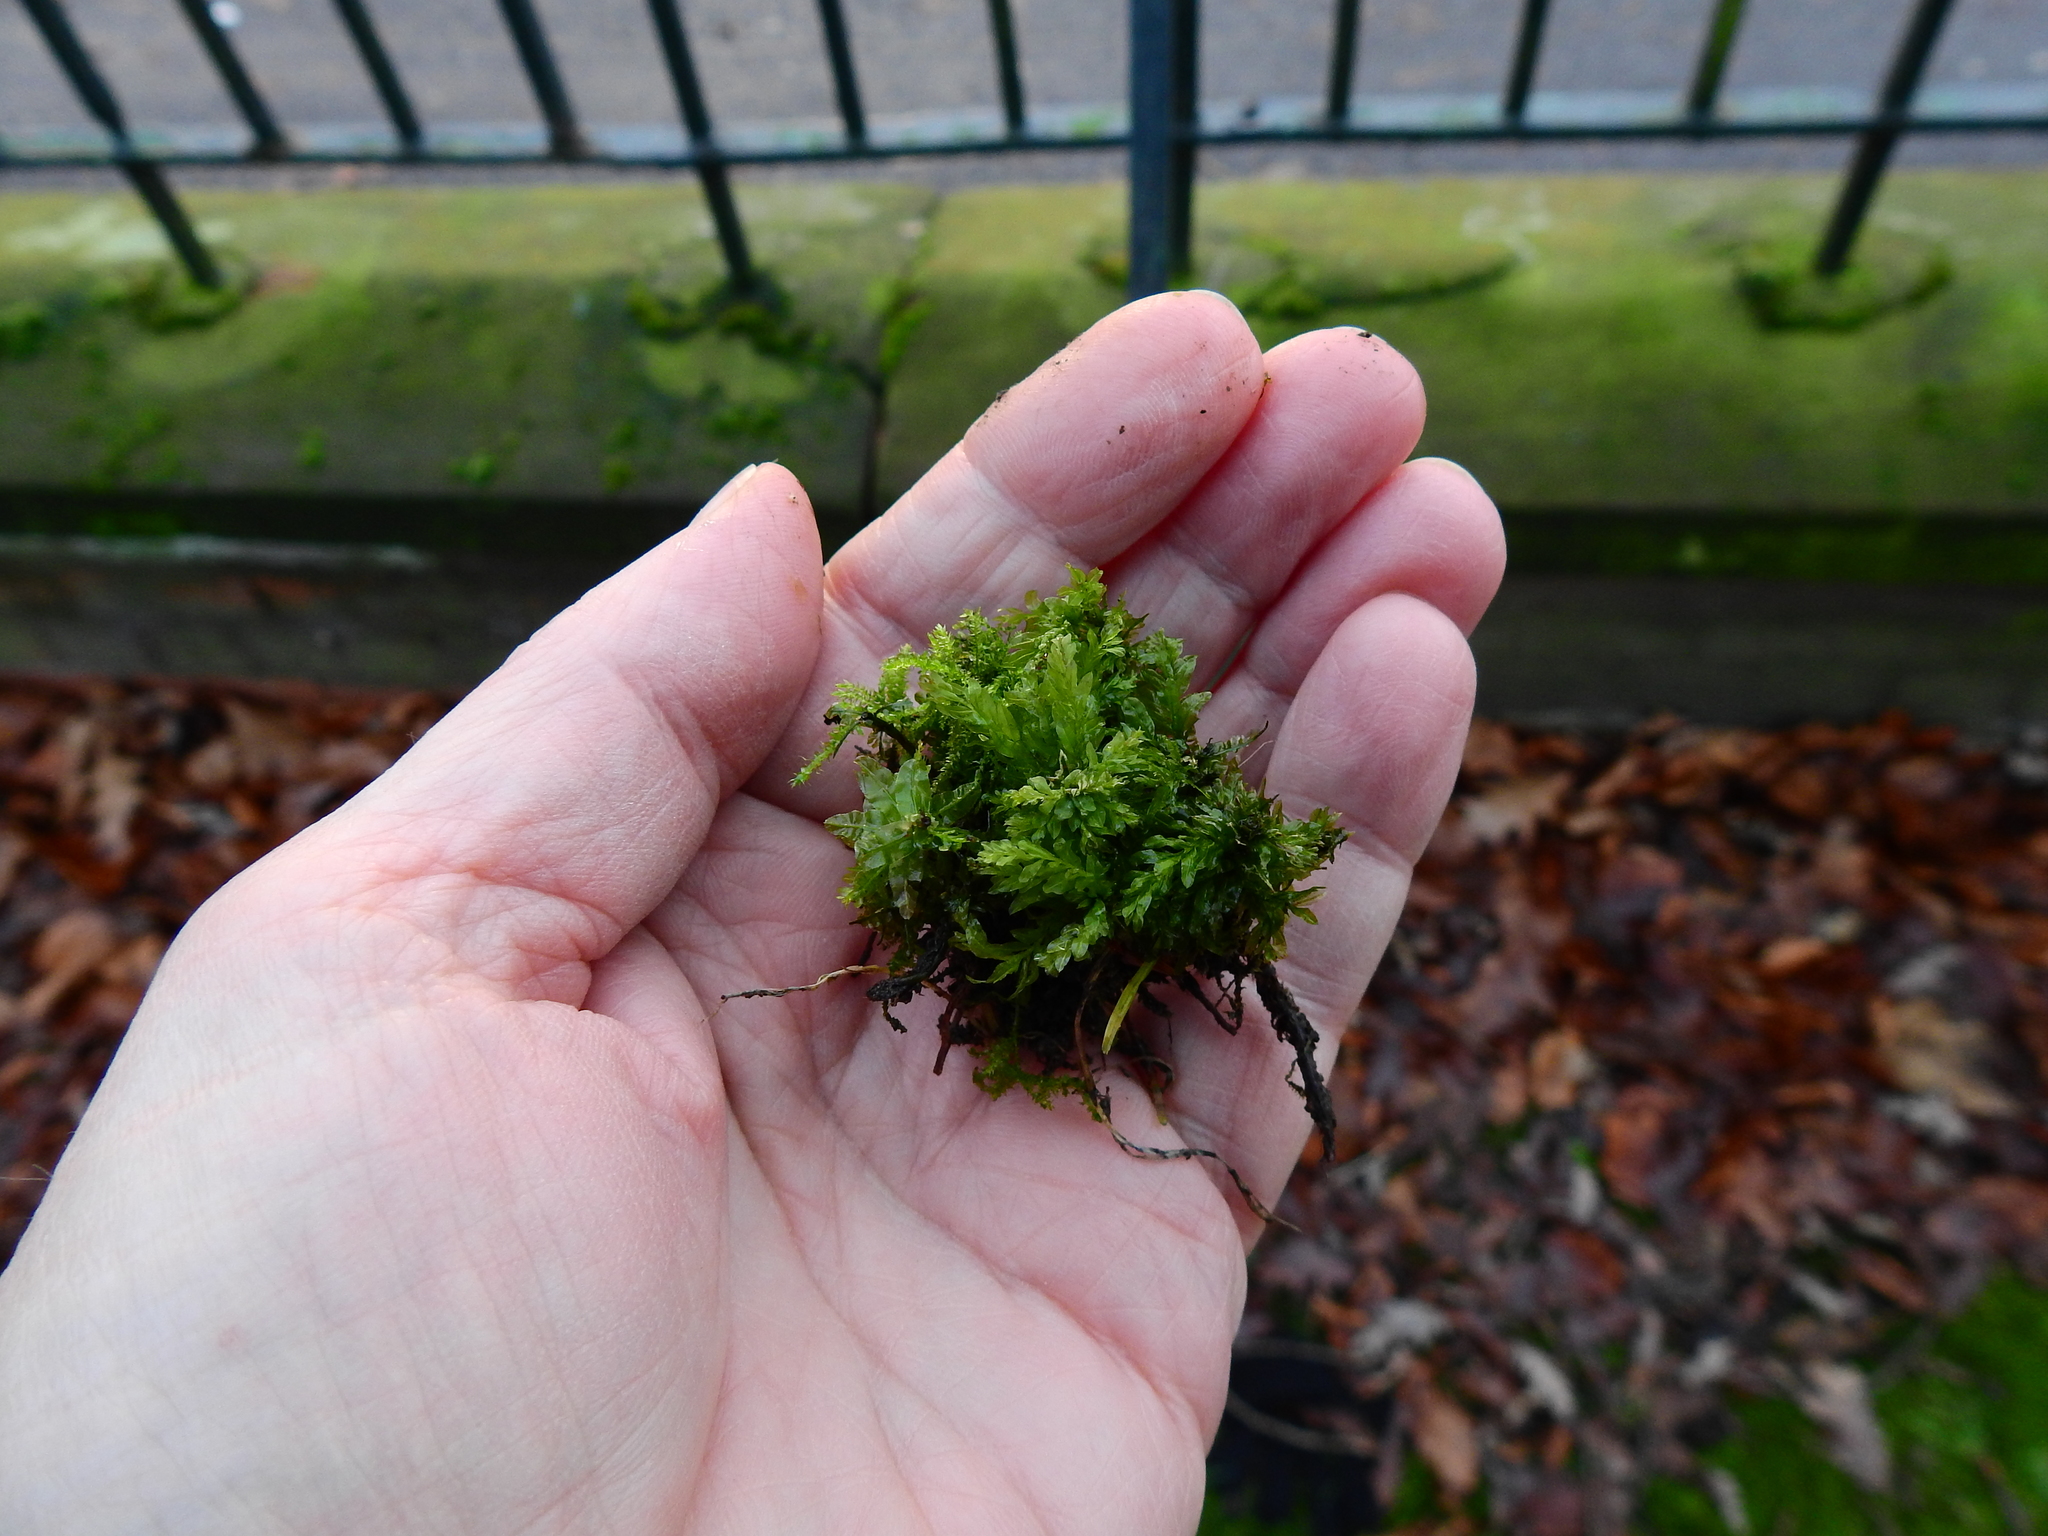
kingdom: Plantae
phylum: Bryophyta
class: Bryopsida
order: Bryales
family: Mniaceae
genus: Plagiomnium
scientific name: Plagiomnium undulatum
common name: Hart's-tongue thyme-moss
